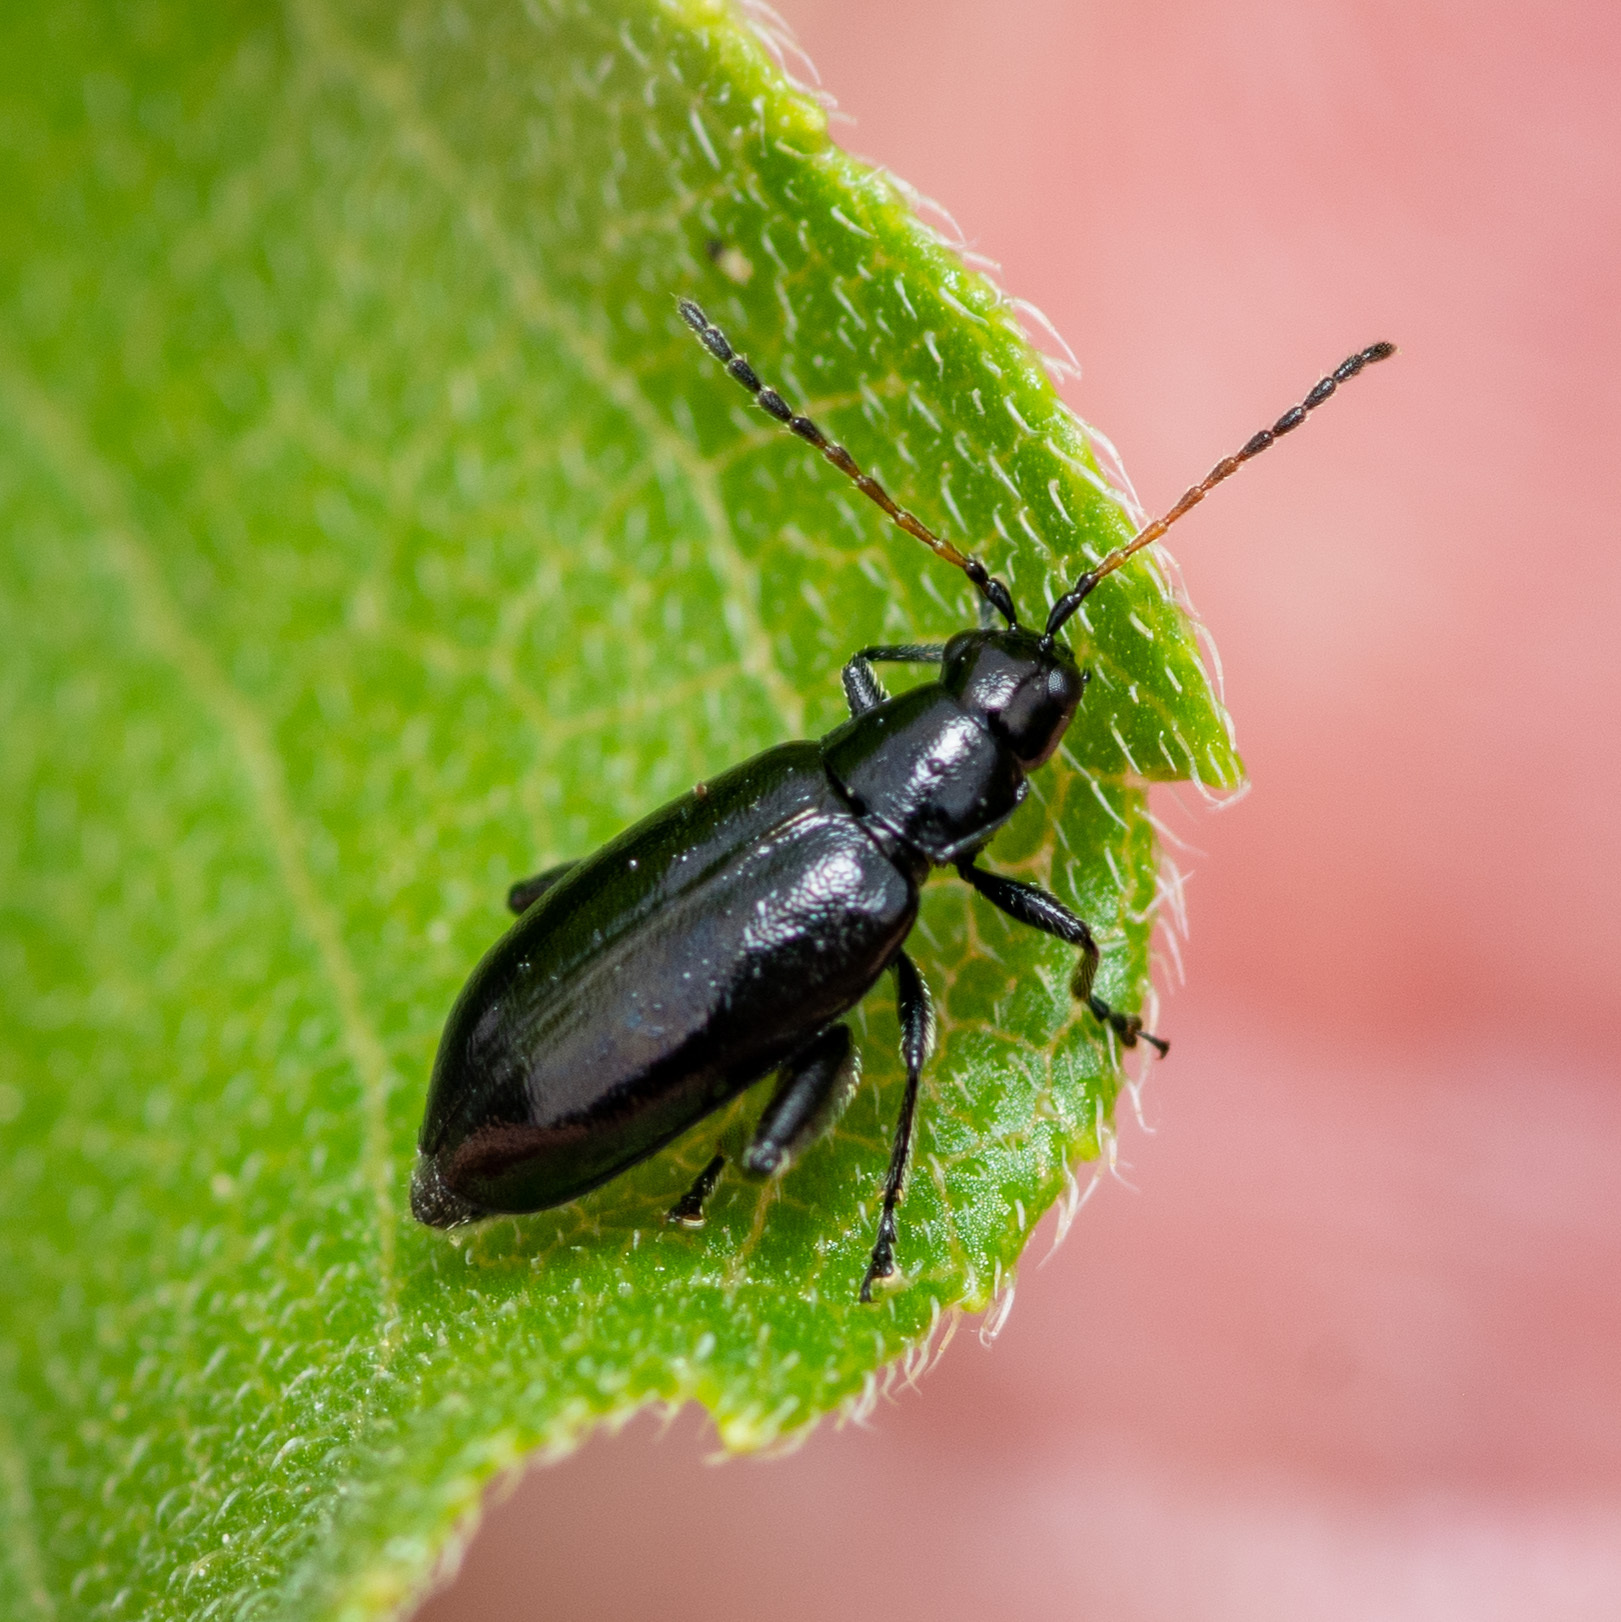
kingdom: Animalia
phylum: Arthropoda
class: Insecta
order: Coleoptera
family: Chrysomelidae
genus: Systena
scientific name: Systena hudsonias
